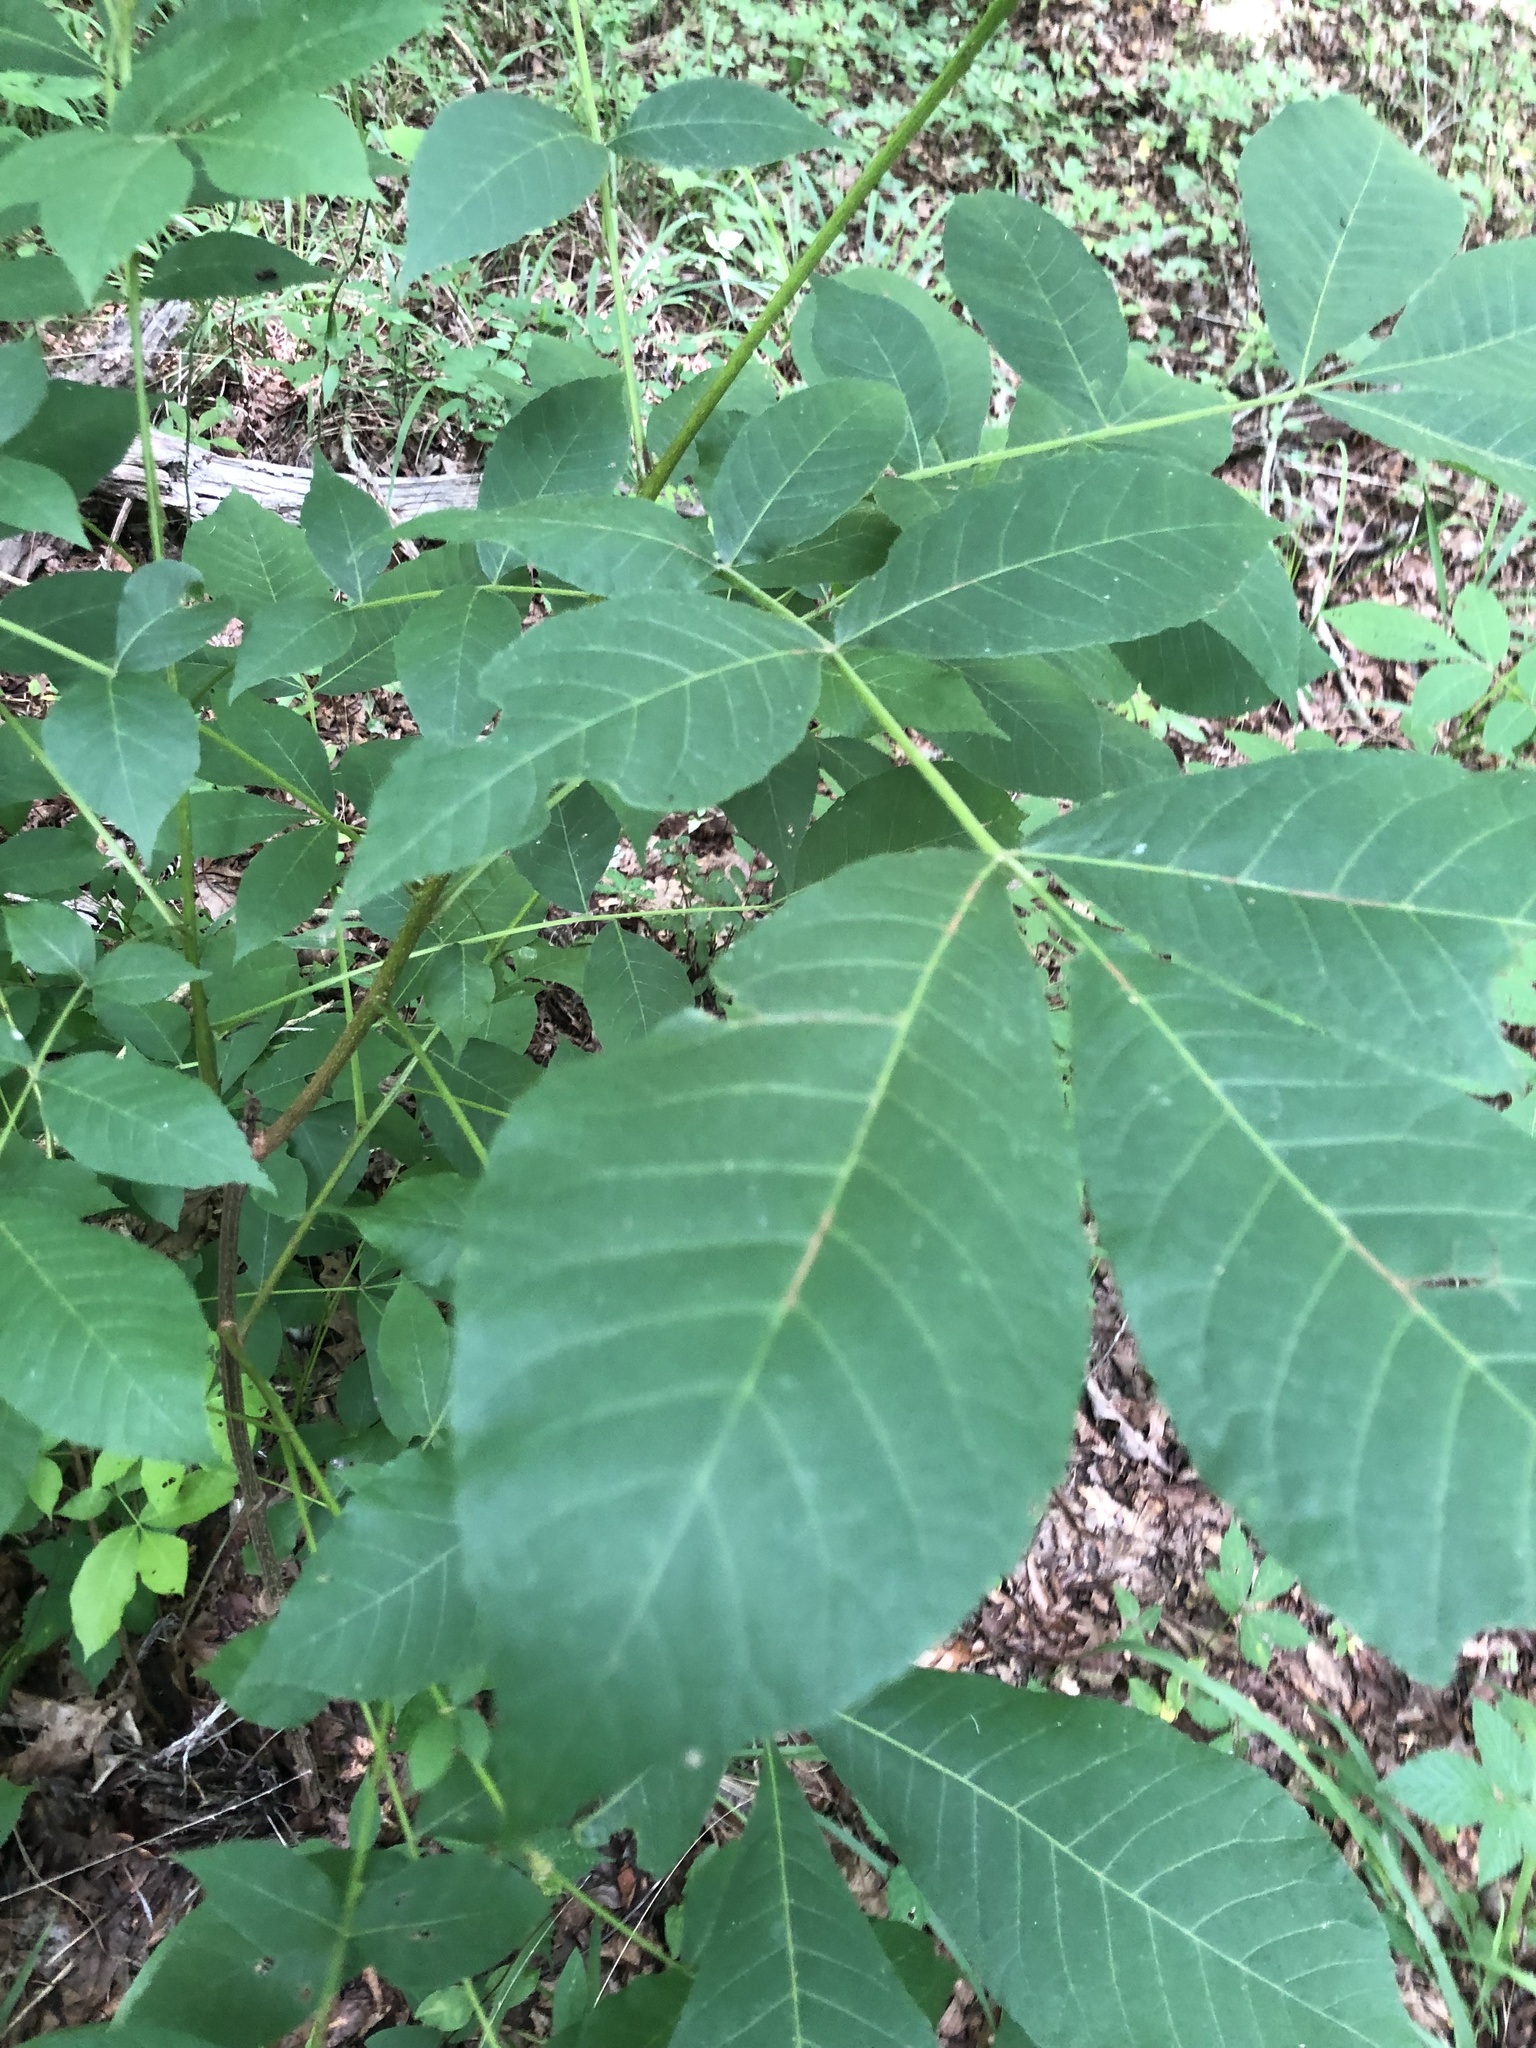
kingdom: Plantae
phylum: Tracheophyta
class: Magnoliopsida
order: Fagales
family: Juglandaceae
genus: Carya
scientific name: Carya laciniosa
